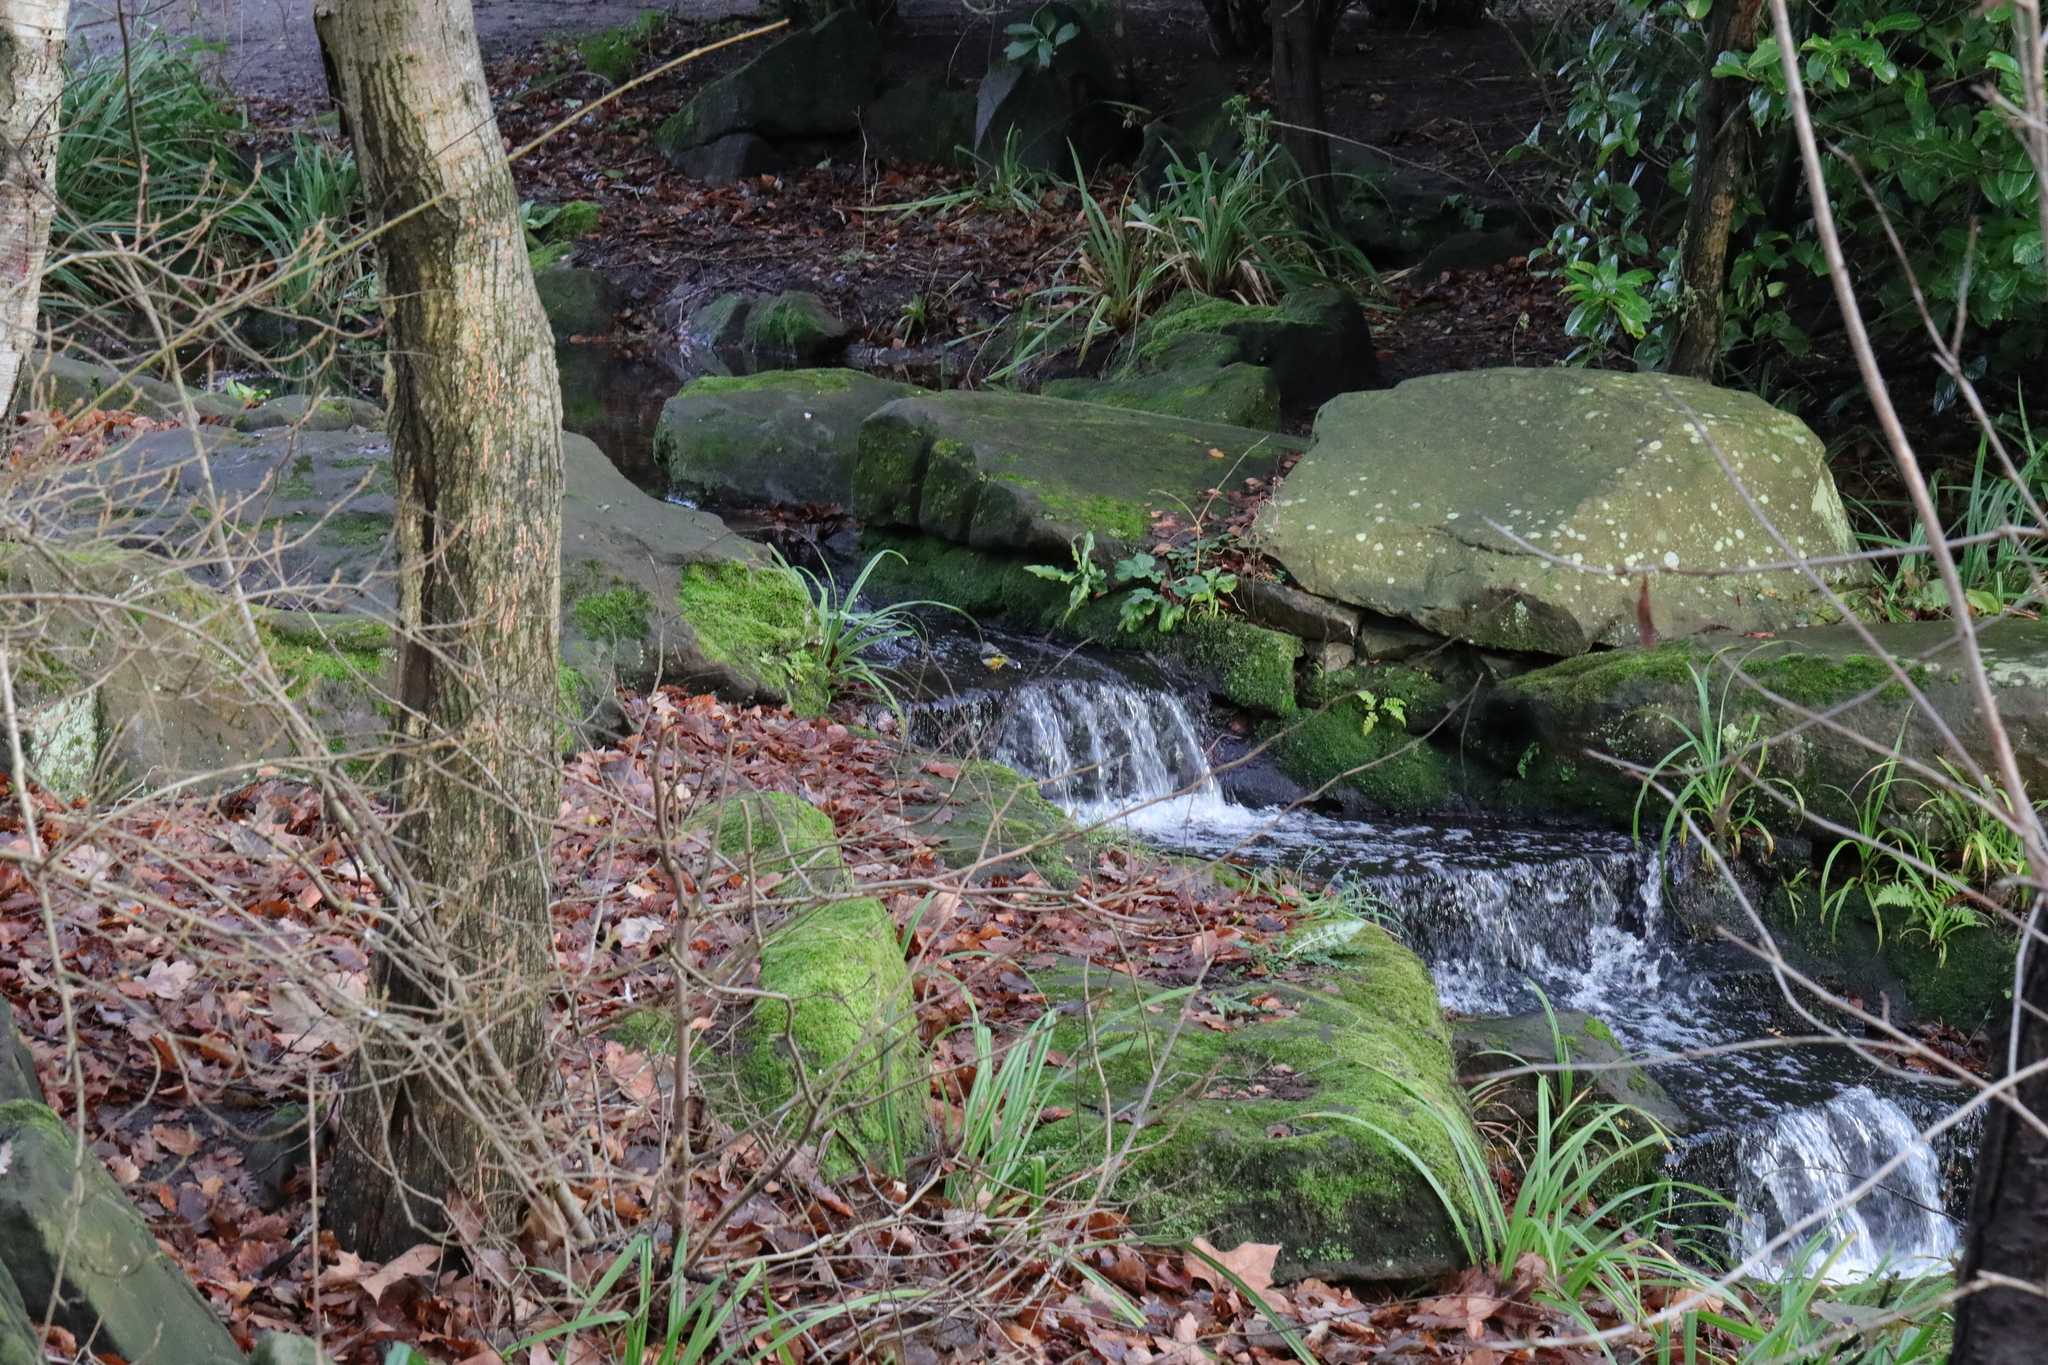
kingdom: Animalia
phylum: Chordata
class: Aves
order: Passeriformes
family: Motacillidae
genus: Motacilla
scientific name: Motacilla cinerea
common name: Grey wagtail
